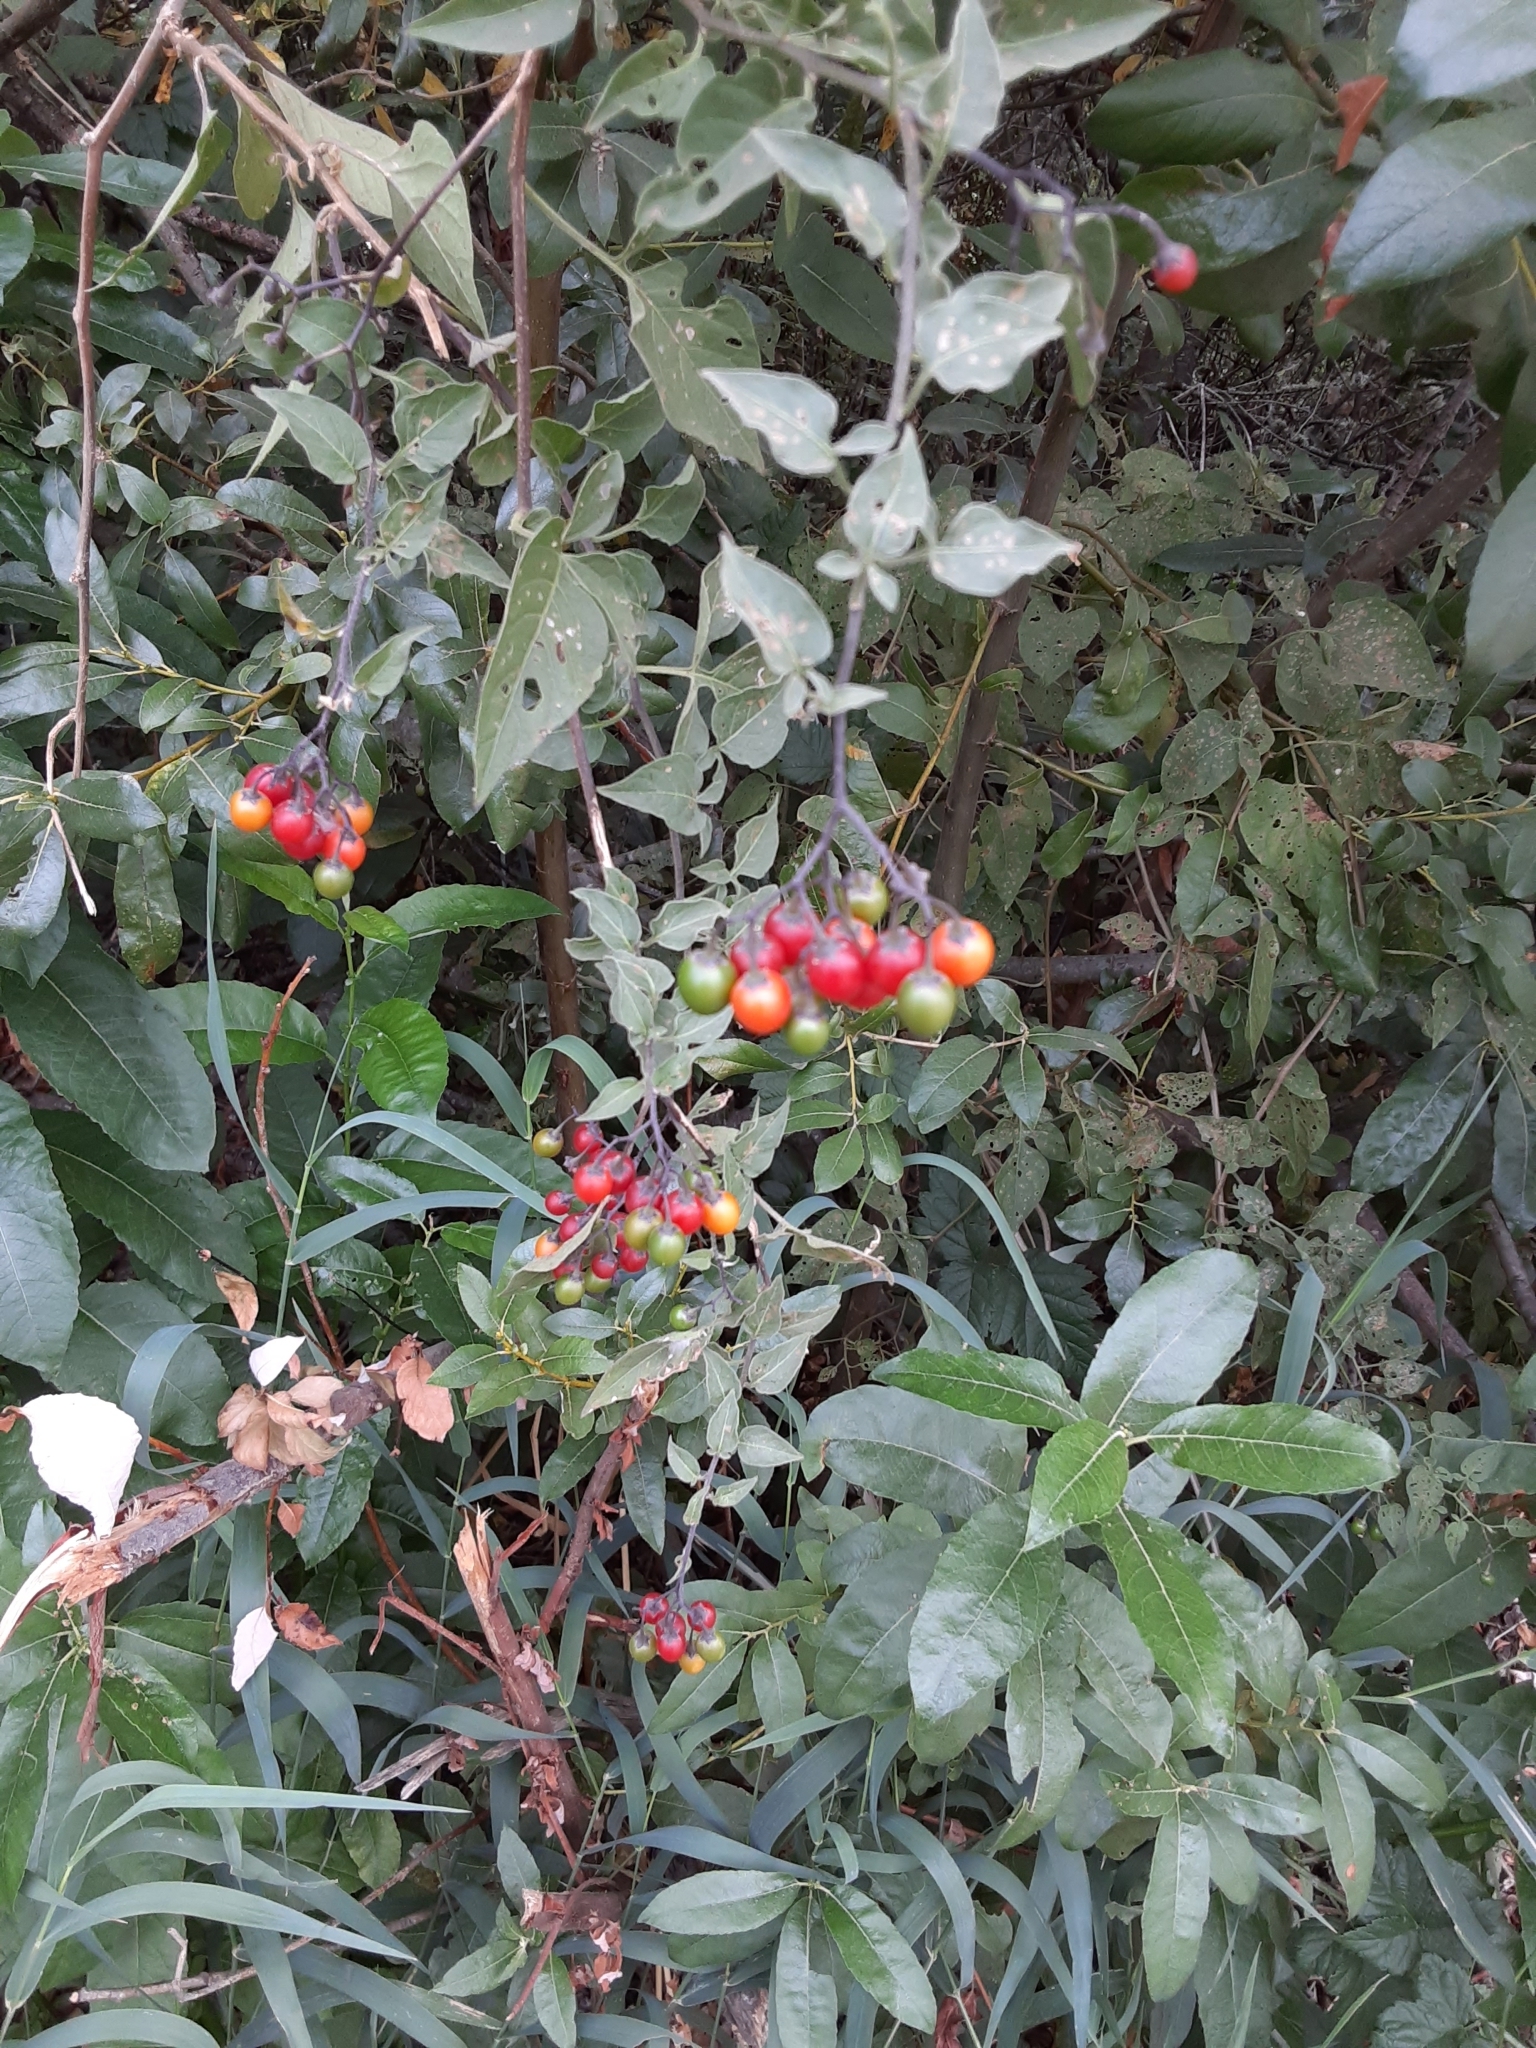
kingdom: Plantae
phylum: Tracheophyta
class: Magnoliopsida
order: Solanales
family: Solanaceae
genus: Solanum
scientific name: Solanum dulcamara
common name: Climbing nightshade
